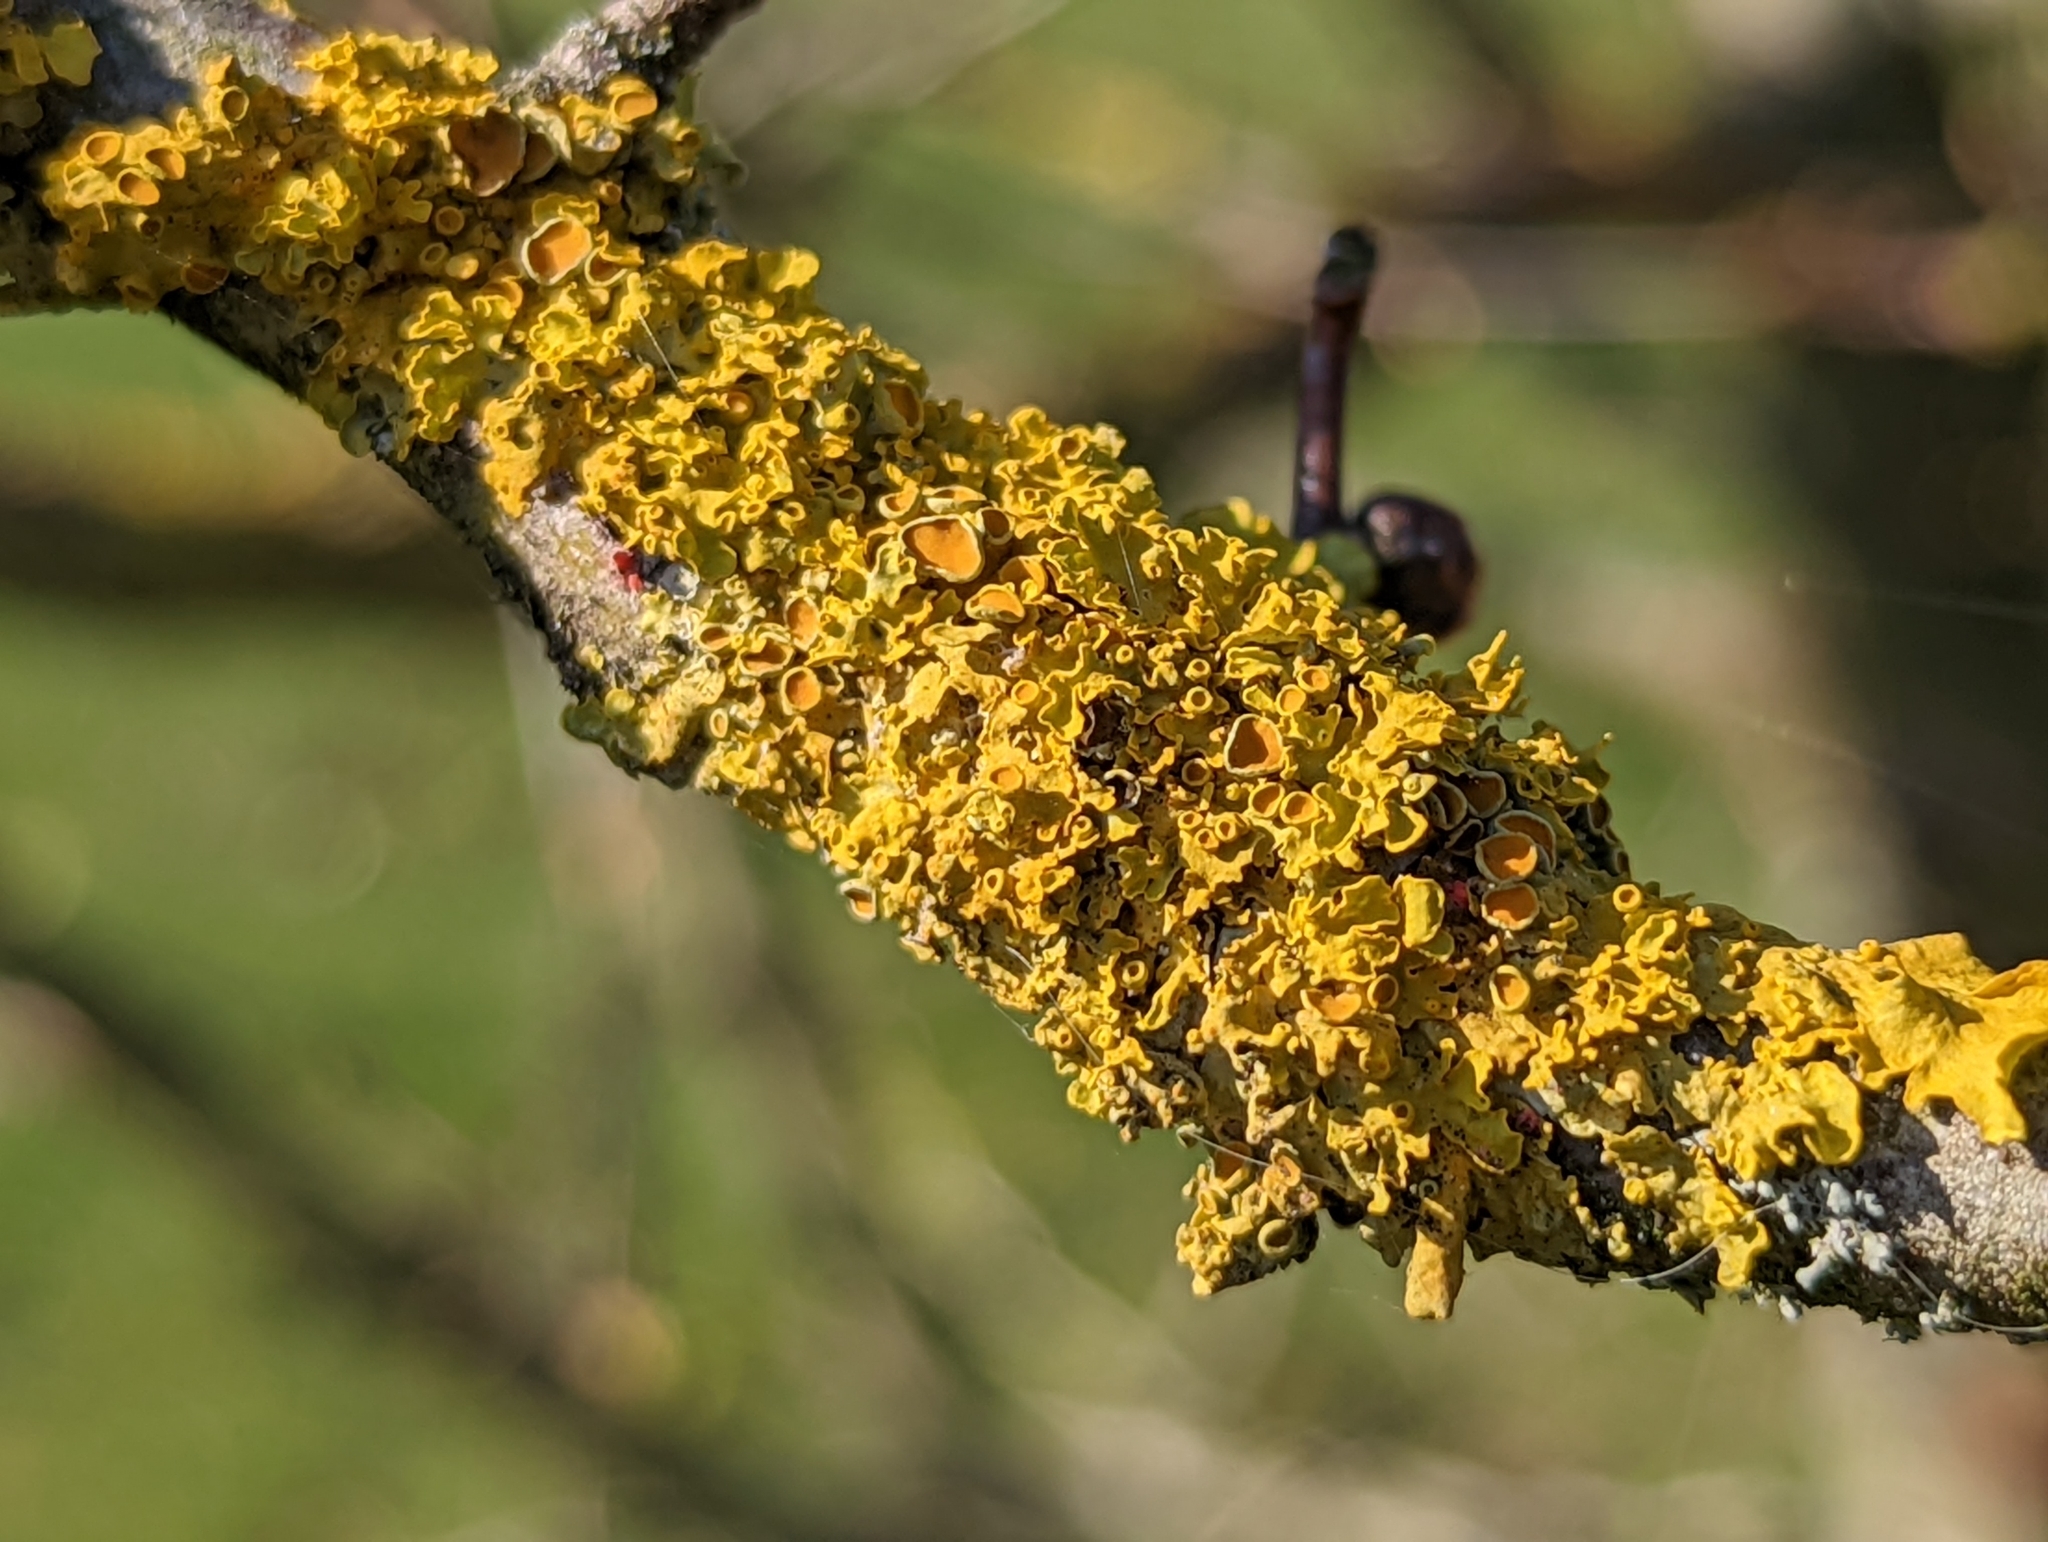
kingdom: Fungi
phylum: Ascomycota
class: Lecanoromycetes
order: Teloschistales
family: Teloschistaceae
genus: Xanthoria
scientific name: Xanthoria parietina
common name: Common orange lichen
